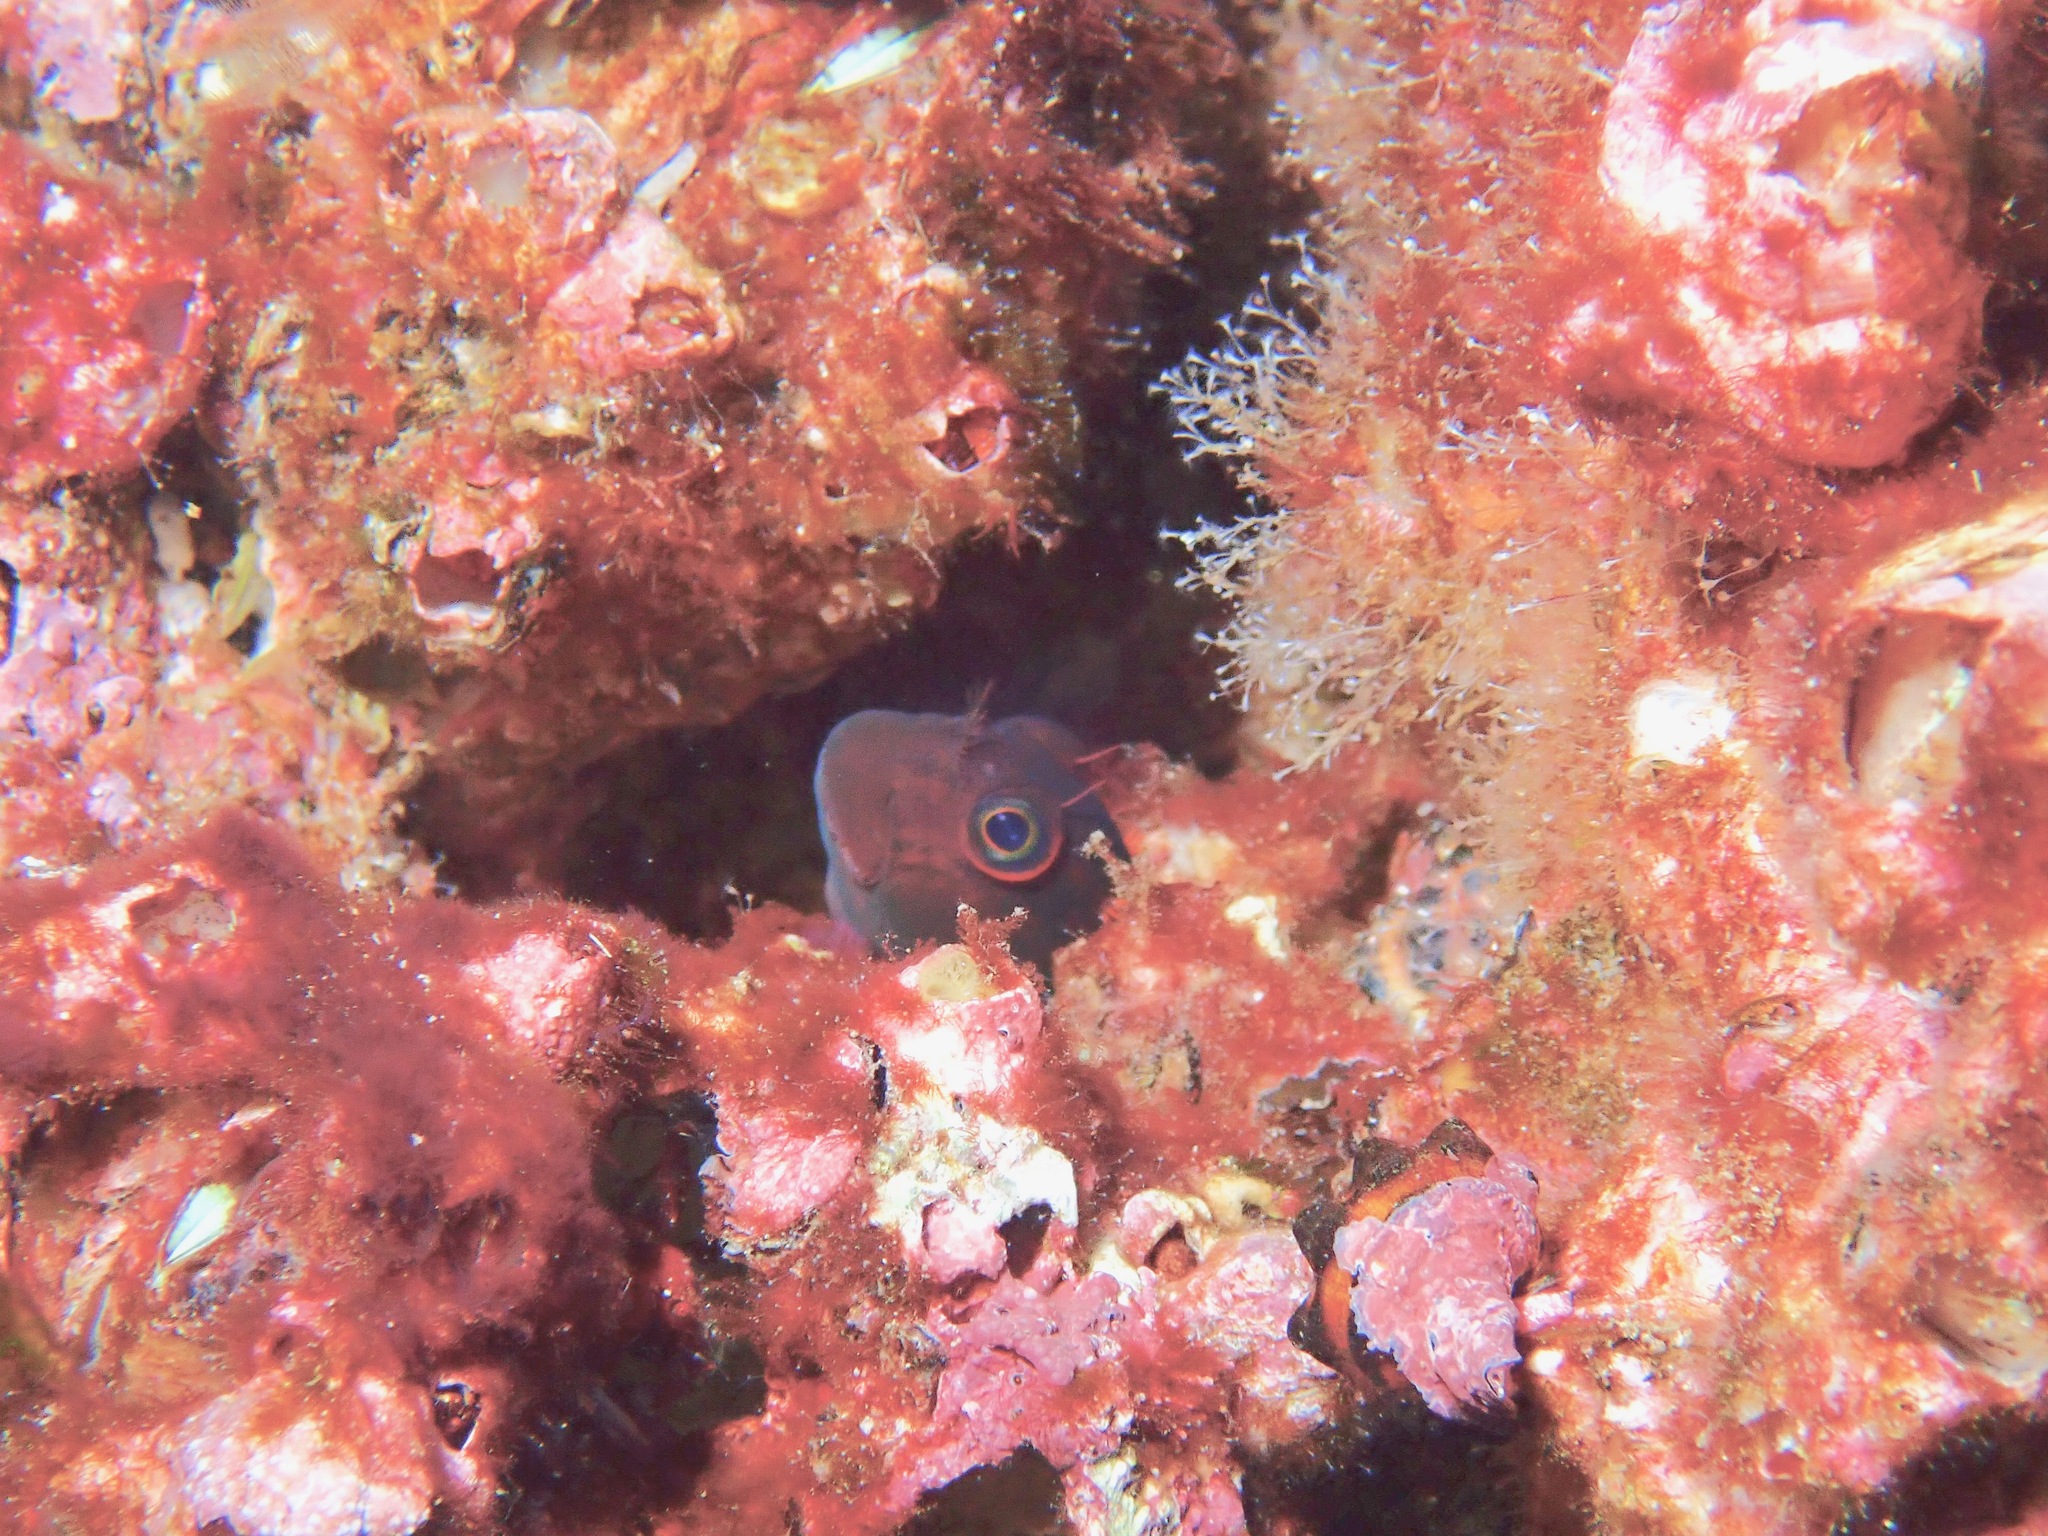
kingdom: Animalia
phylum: Chordata
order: Perciformes
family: Blenniidae
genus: Ophioblennius
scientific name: Ophioblennius steindachneri
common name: Panamic fanged blenny
